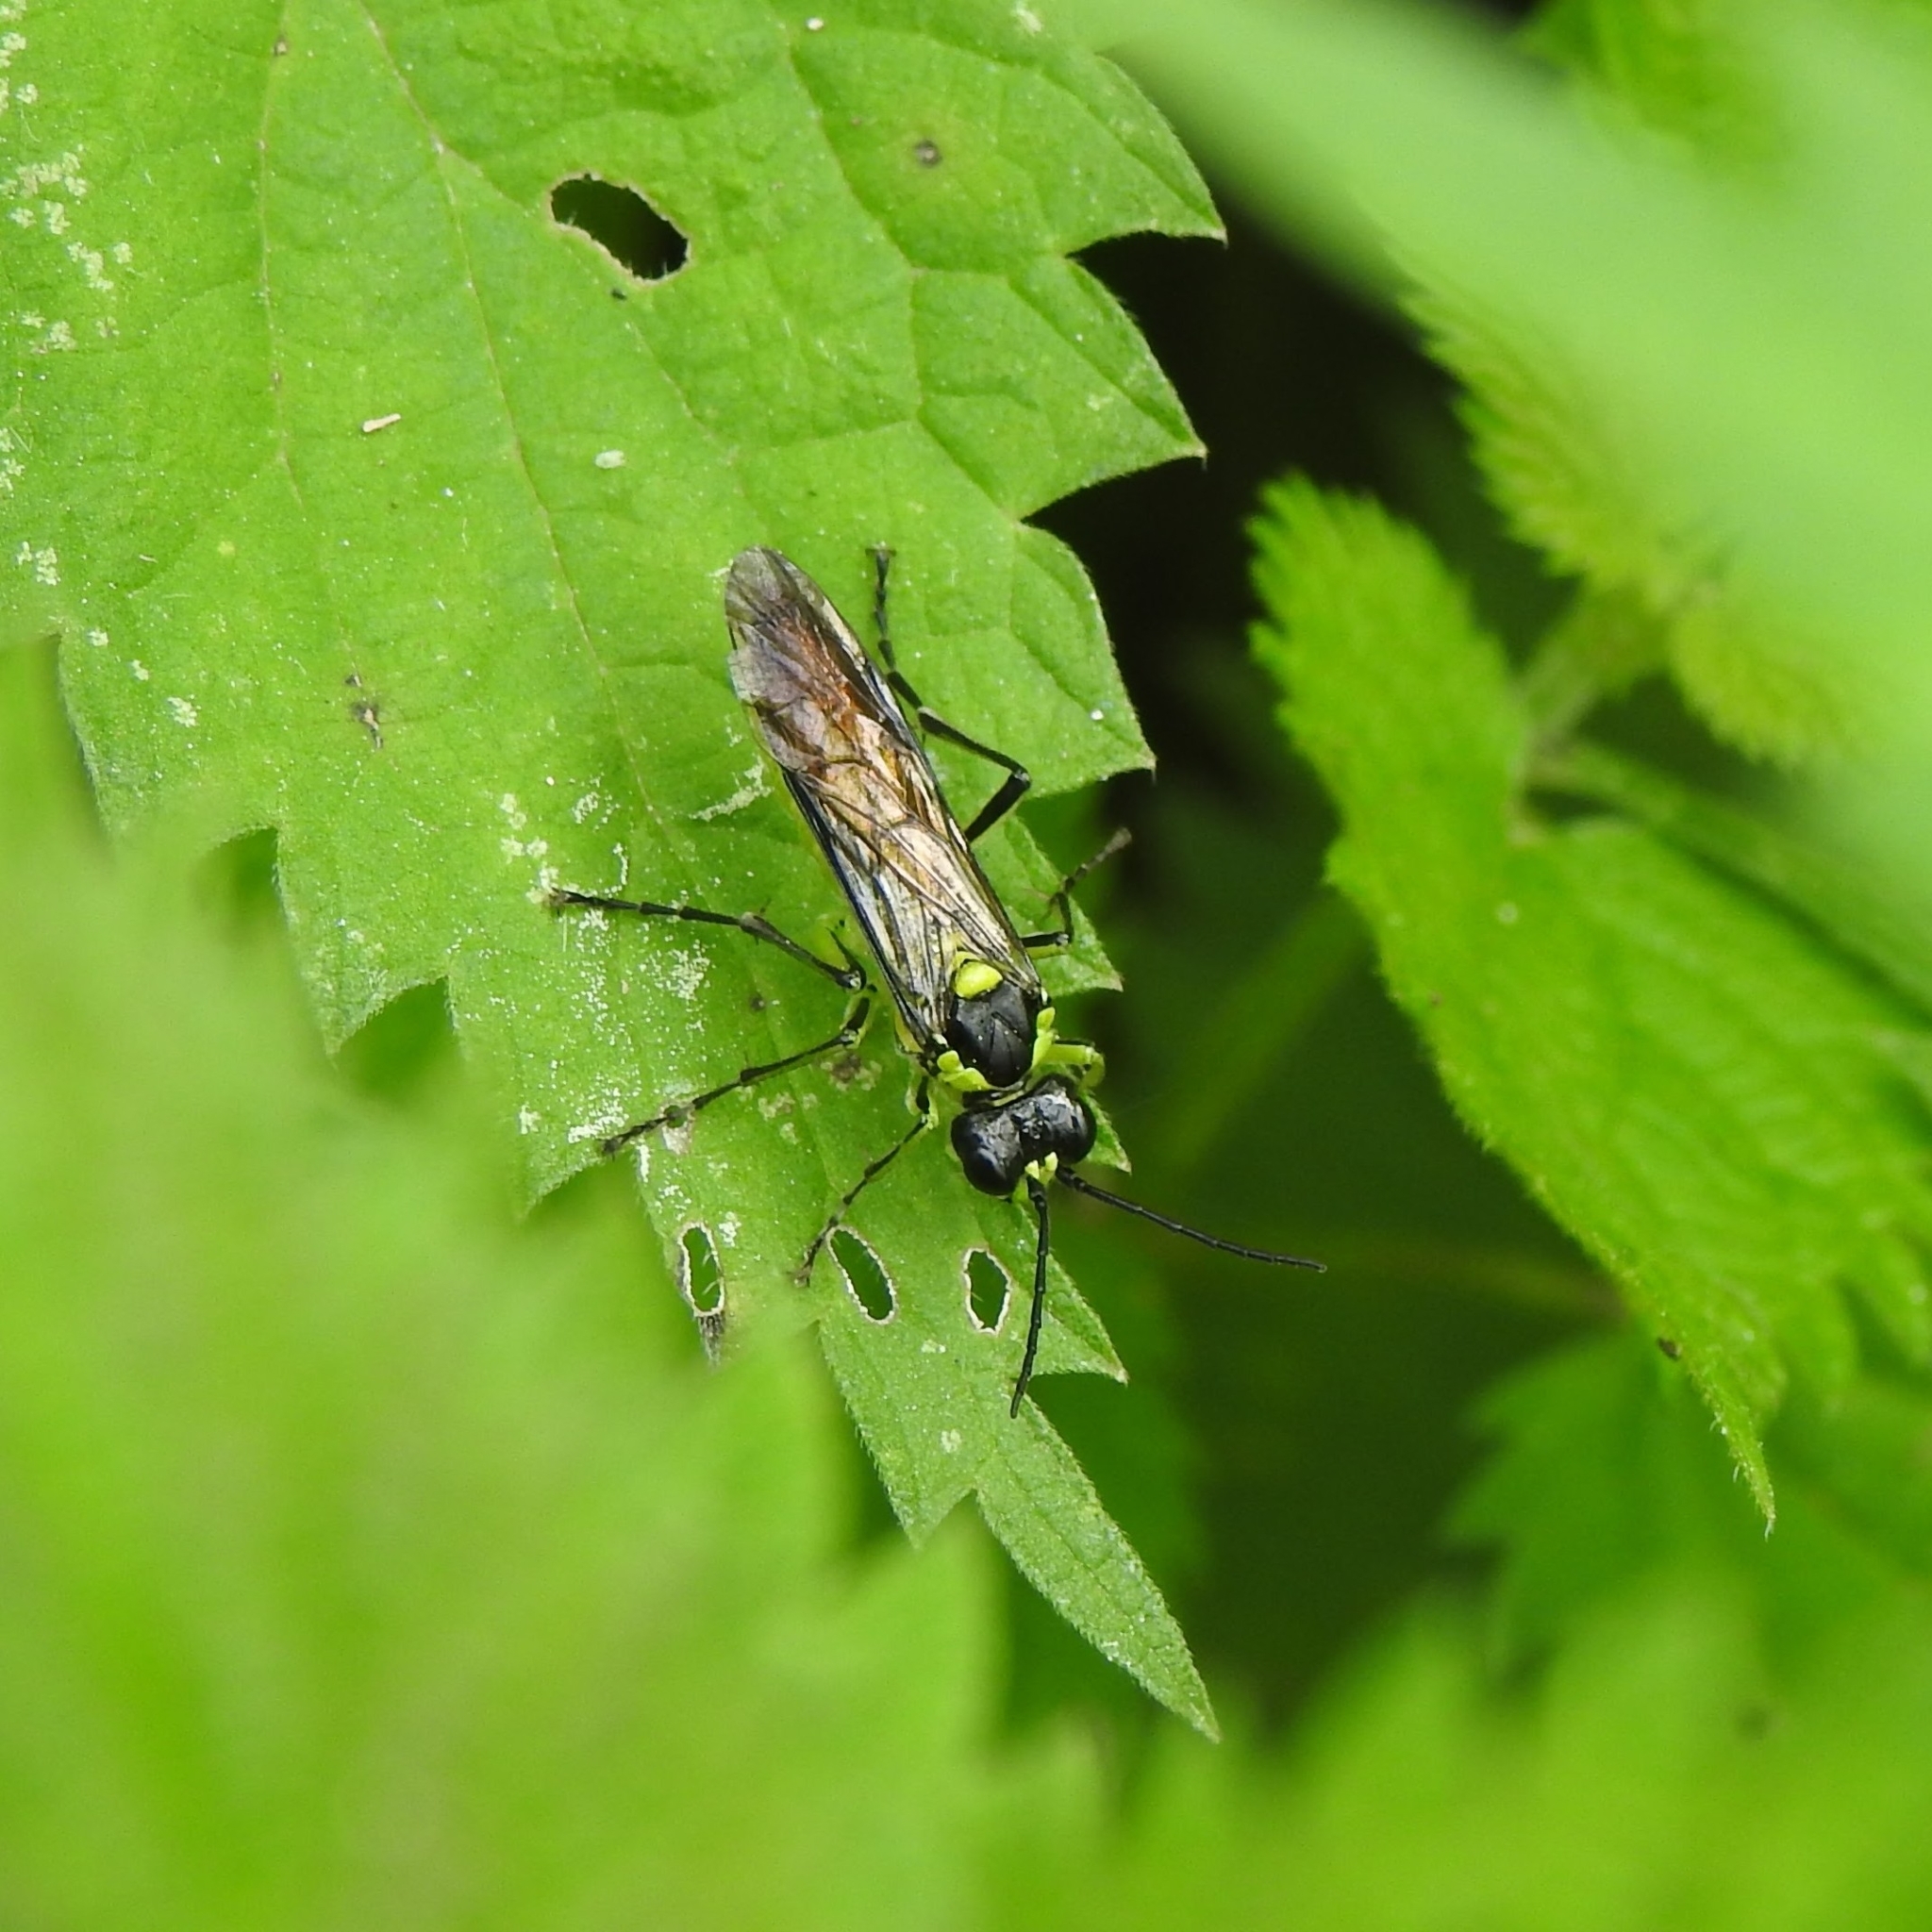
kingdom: Animalia
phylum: Arthropoda
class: Insecta
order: Hymenoptera
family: Tenthredinidae
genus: Tenthredo
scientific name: Tenthredo mesomela
